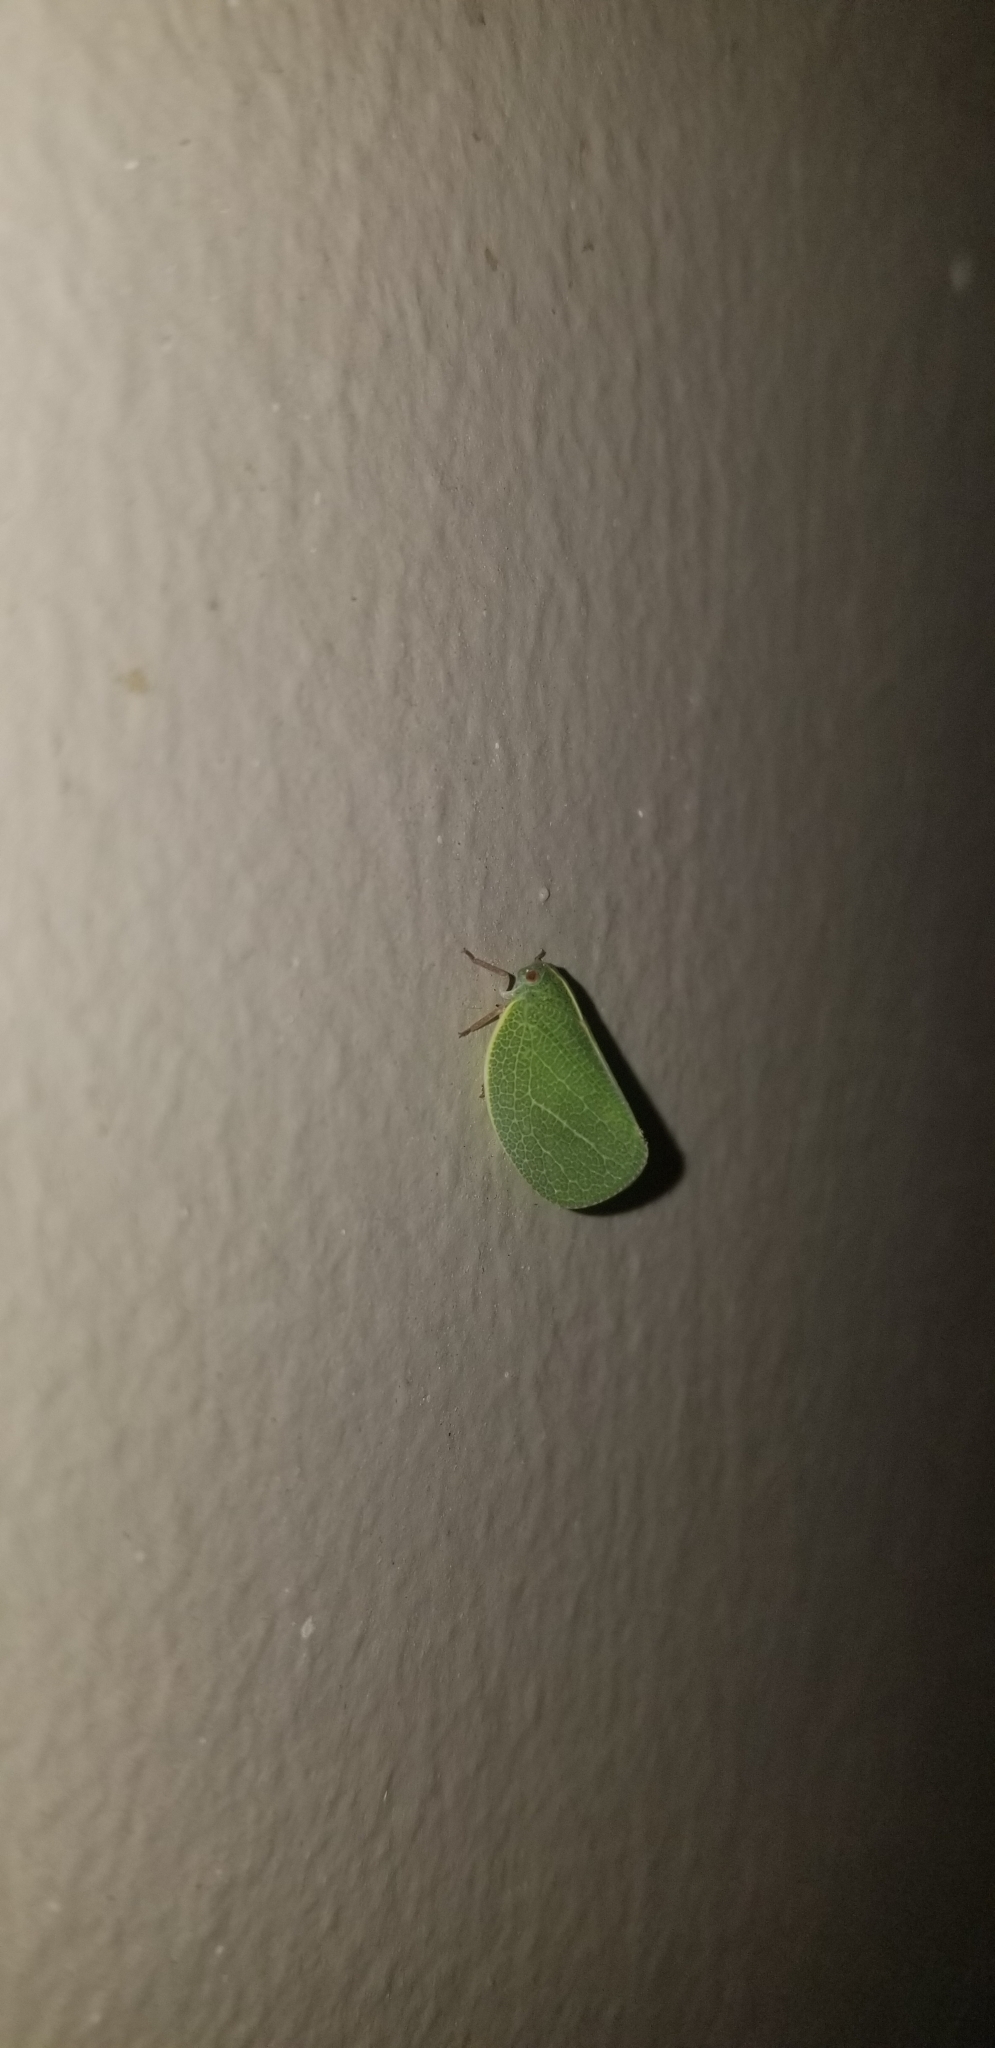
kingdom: Animalia
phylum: Arthropoda
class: Insecta
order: Hemiptera
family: Acanaloniidae
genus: Acanalonia
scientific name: Acanalonia servillei
